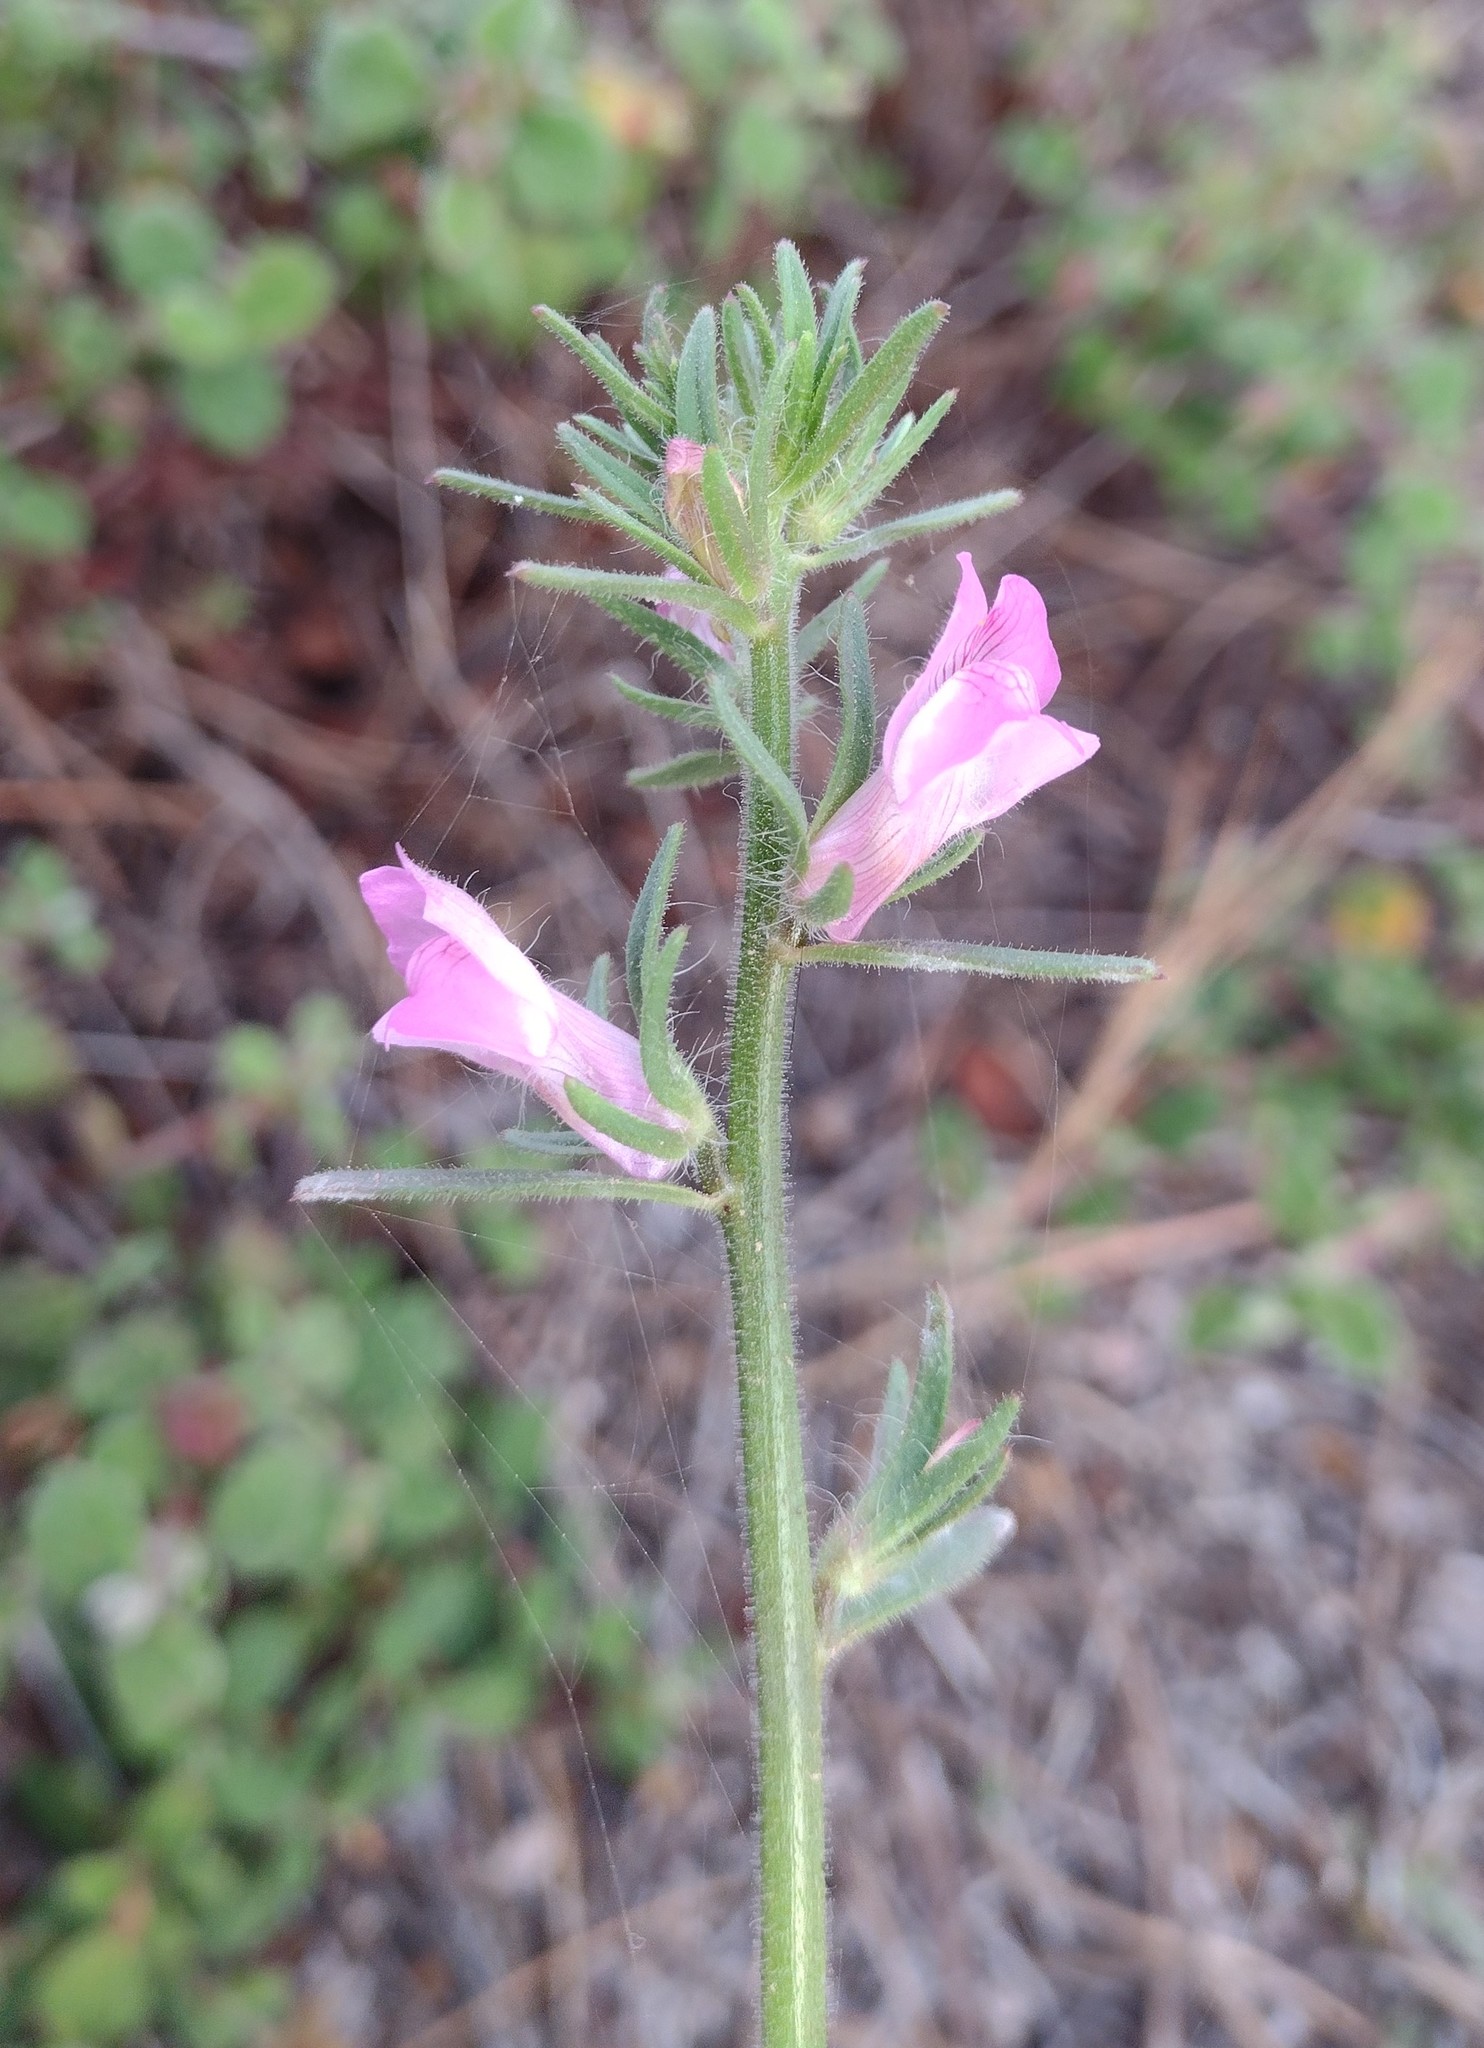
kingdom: Plantae
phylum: Tracheophyta
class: Magnoliopsida
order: Lamiales
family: Plantaginaceae
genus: Misopates
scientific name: Misopates orontium
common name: Weasel's-snout
